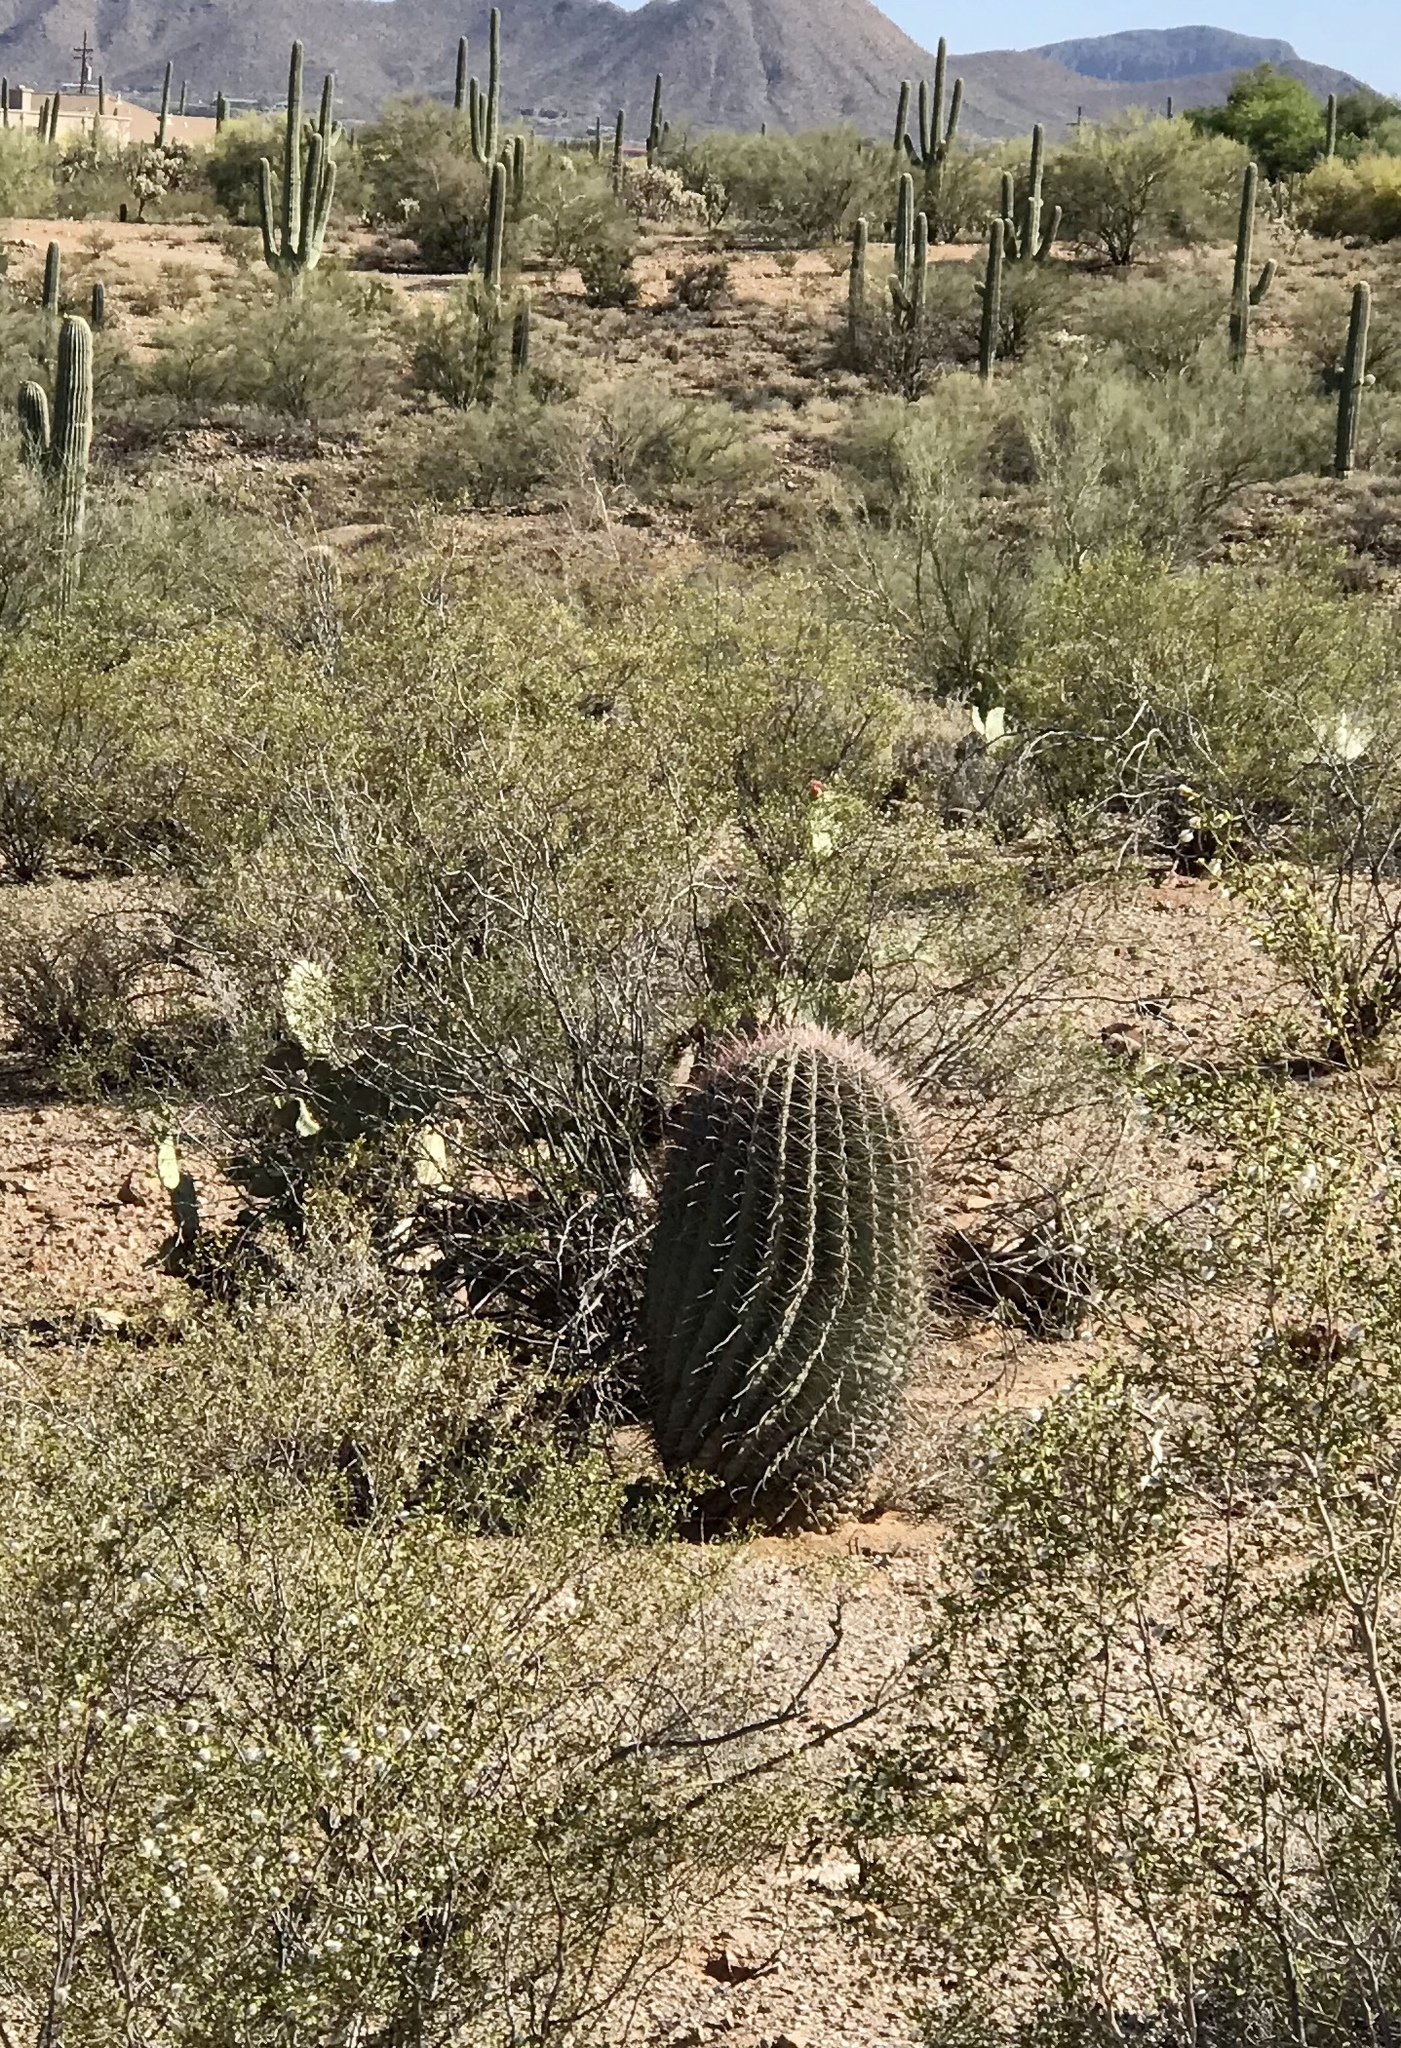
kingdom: Plantae
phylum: Tracheophyta
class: Magnoliopsida
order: Caryophyllales
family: Cactaceae
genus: Ferocactus
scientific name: Ferocactus wislizeni
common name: Candy barrel cactus
